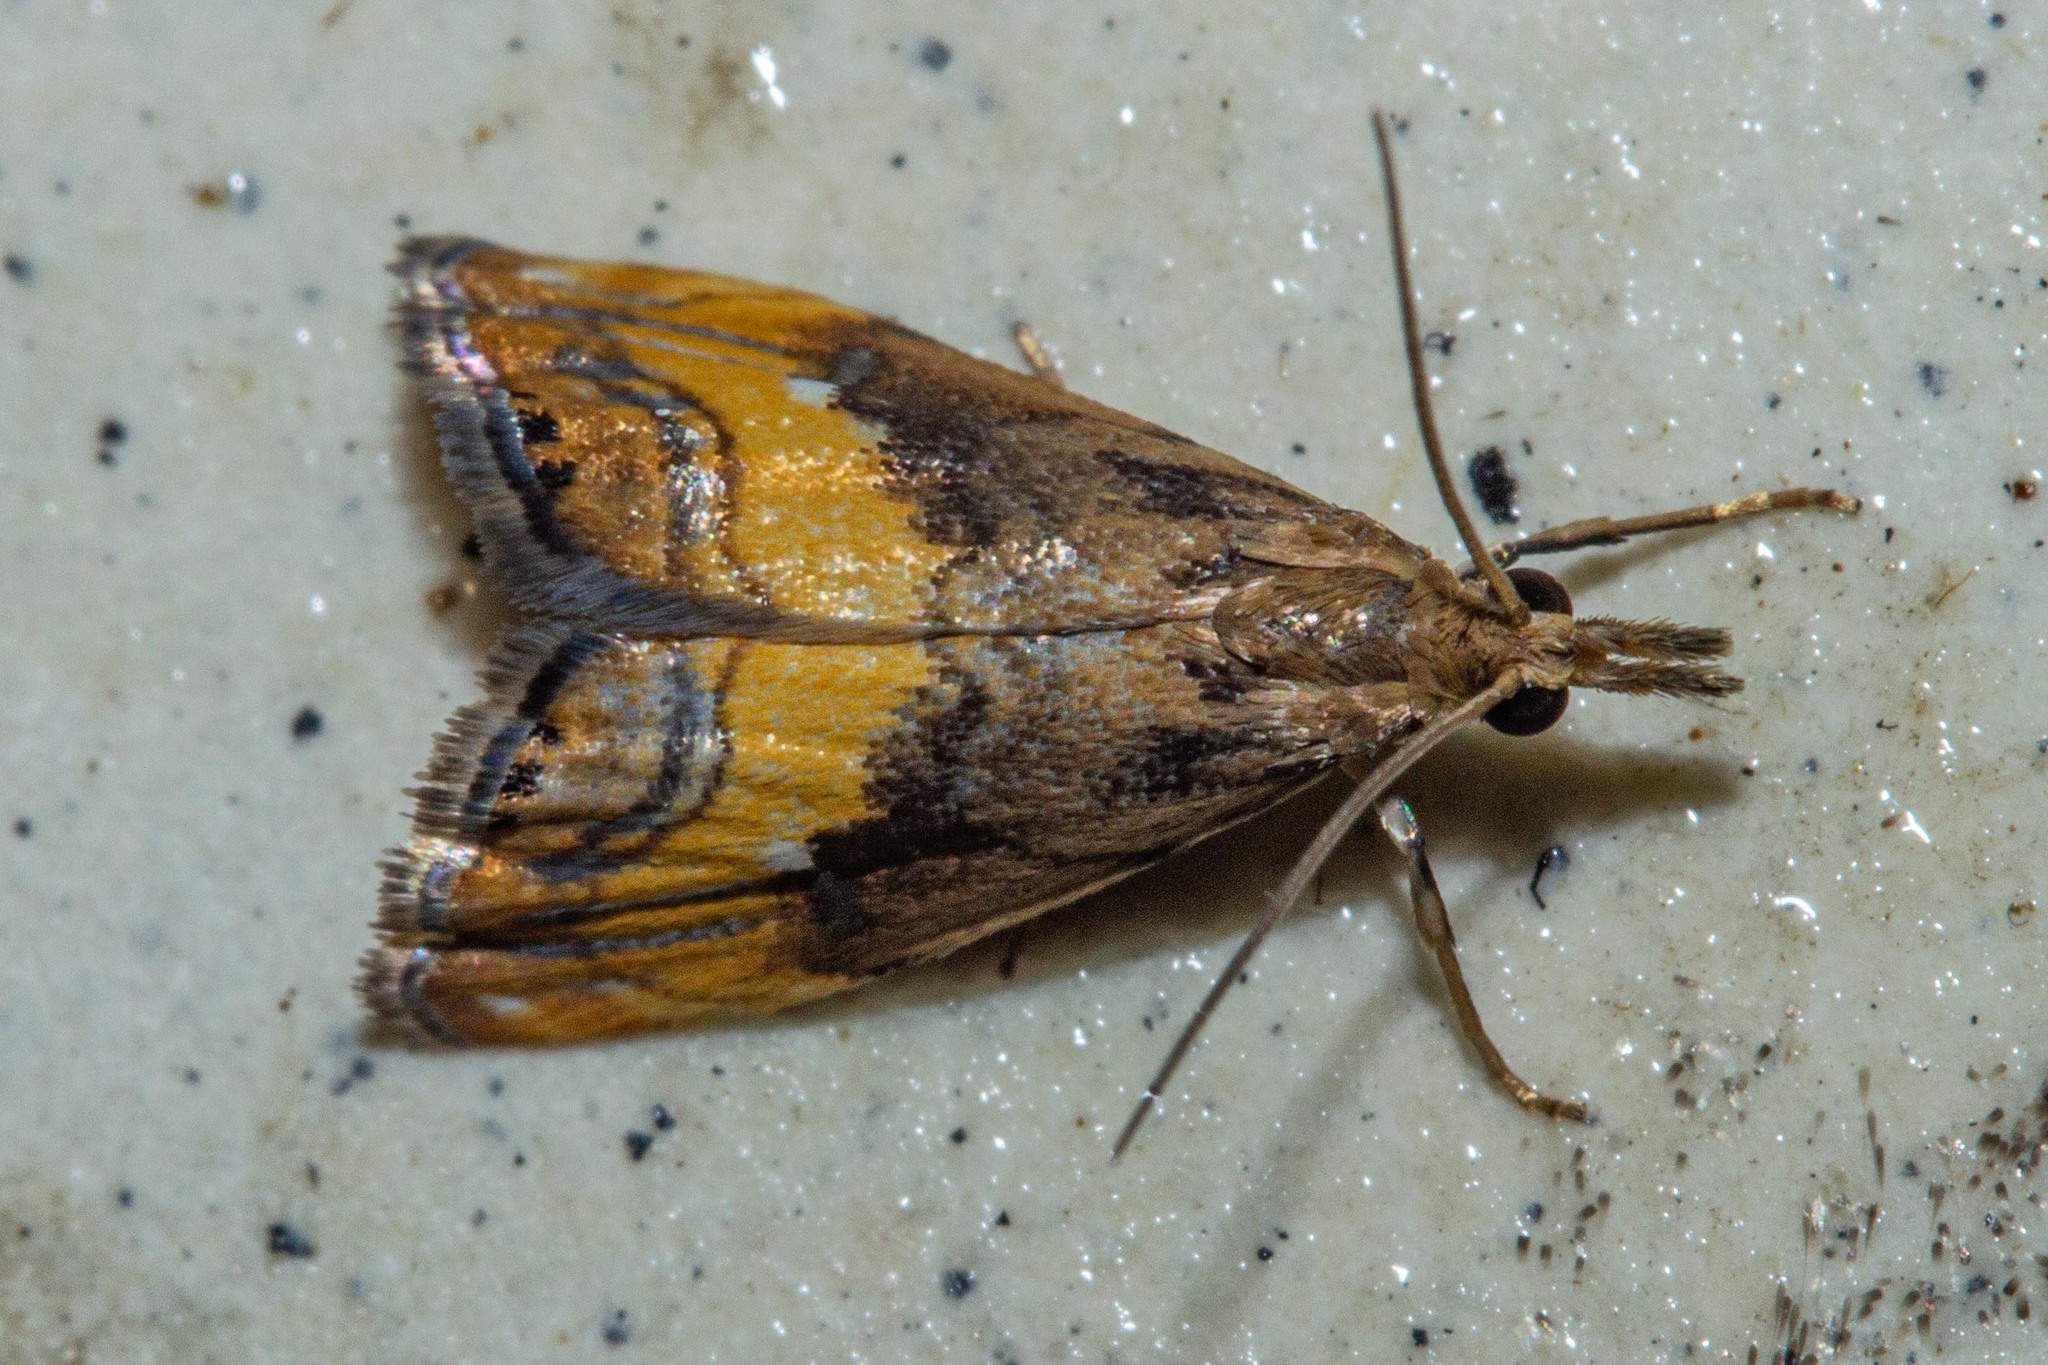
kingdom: Animalia
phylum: Arthropoda
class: Insecta
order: Lepidoptera
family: Crambidae
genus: Glaucocharis
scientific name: Glaucocharis chrysochyta
